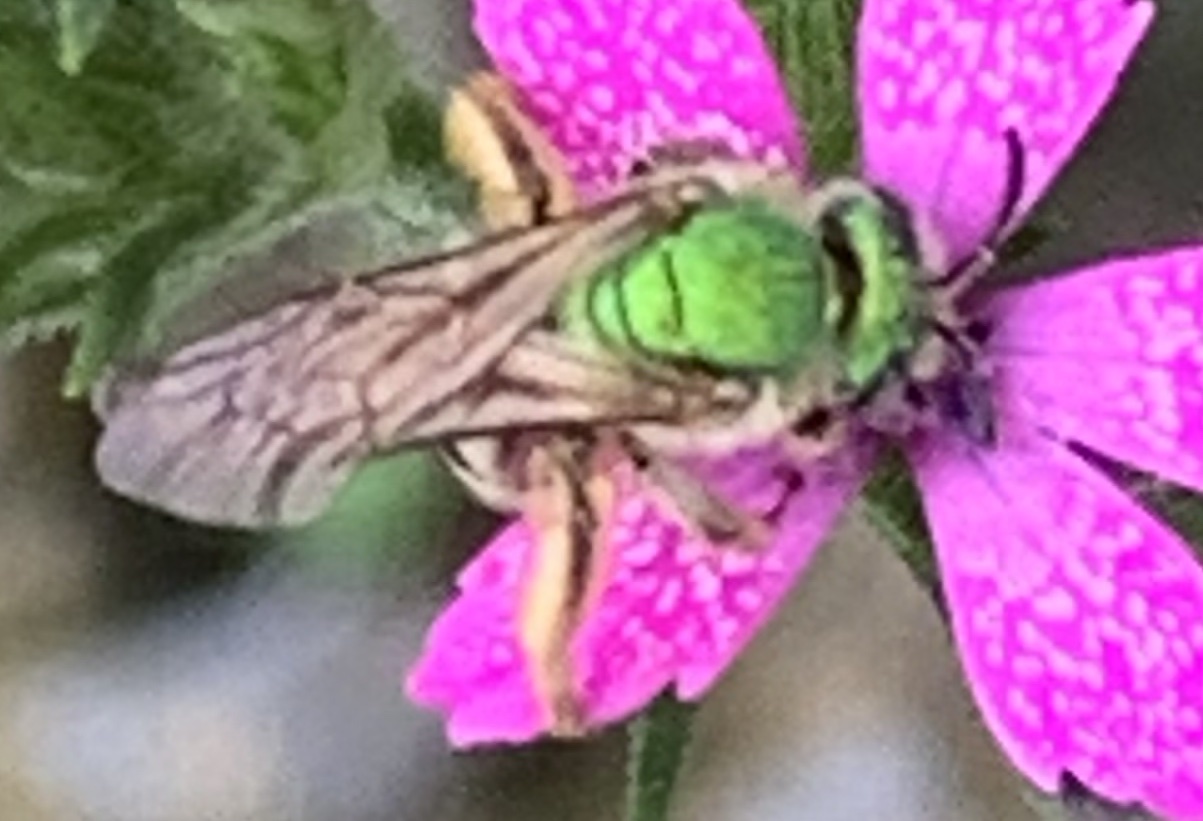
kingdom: Animalia
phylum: Arthropoda
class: Insecta
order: Hymenoptera
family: Halictidae
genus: Agapostemon
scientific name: Agapostemon virescens
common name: Bicolored striped sweat bee
